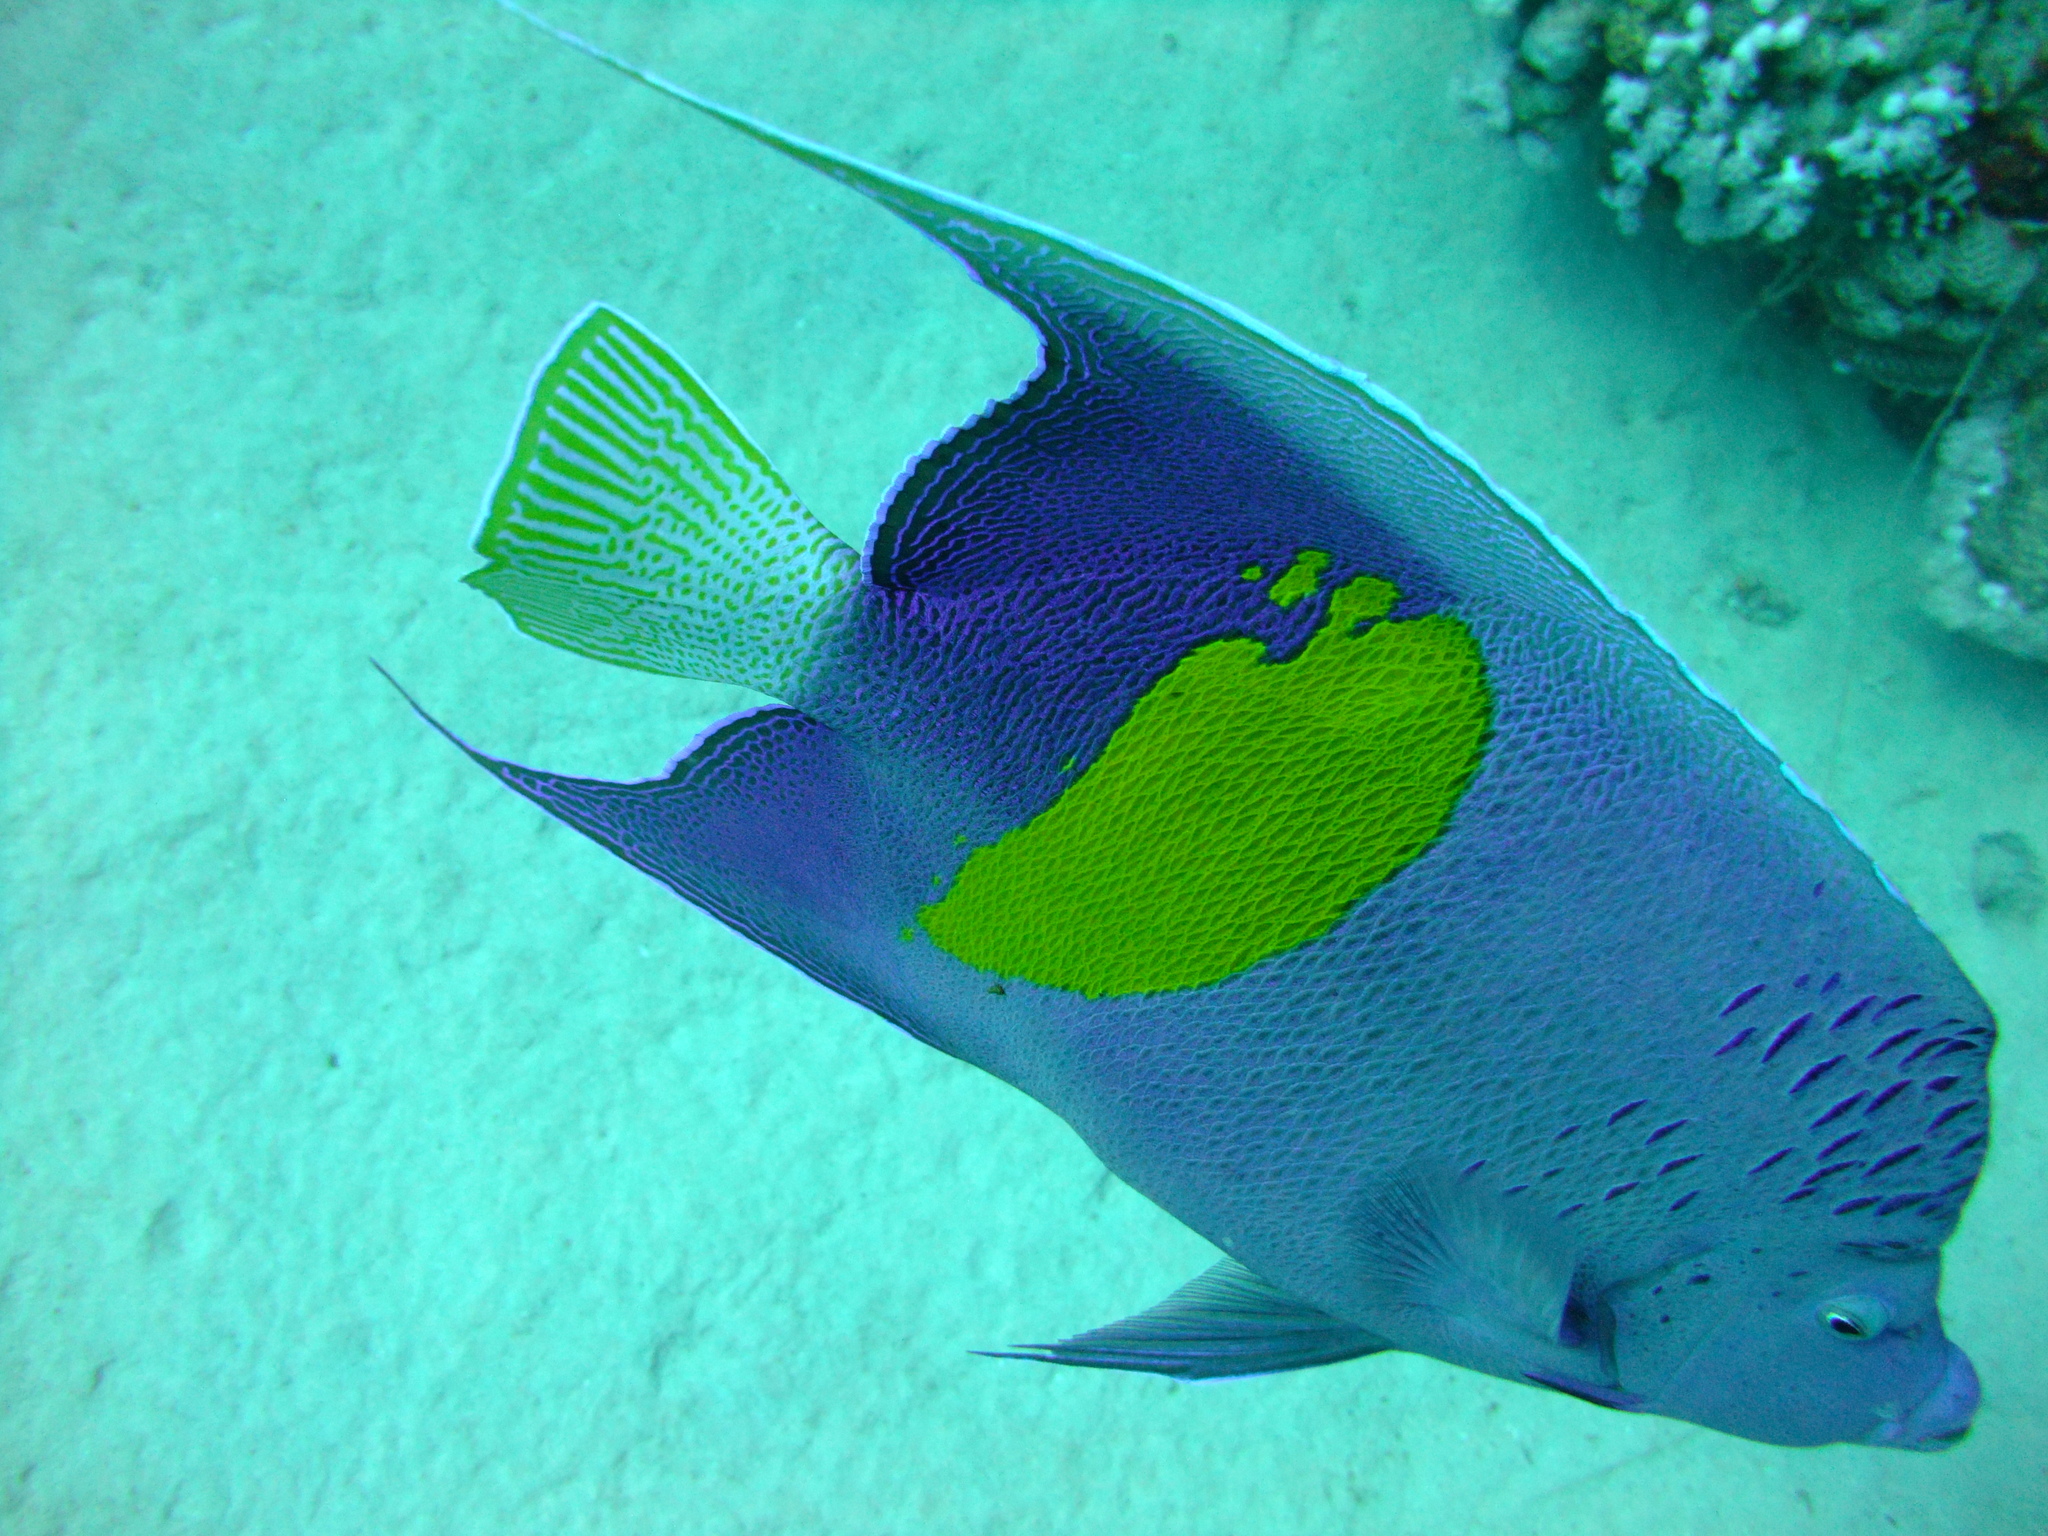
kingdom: Animalia
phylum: Chordata
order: Perciformes
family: Pomacanthidae
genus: Pomacanthus
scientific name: Pomacanthus maculosus
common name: Yellowbar angelfish
